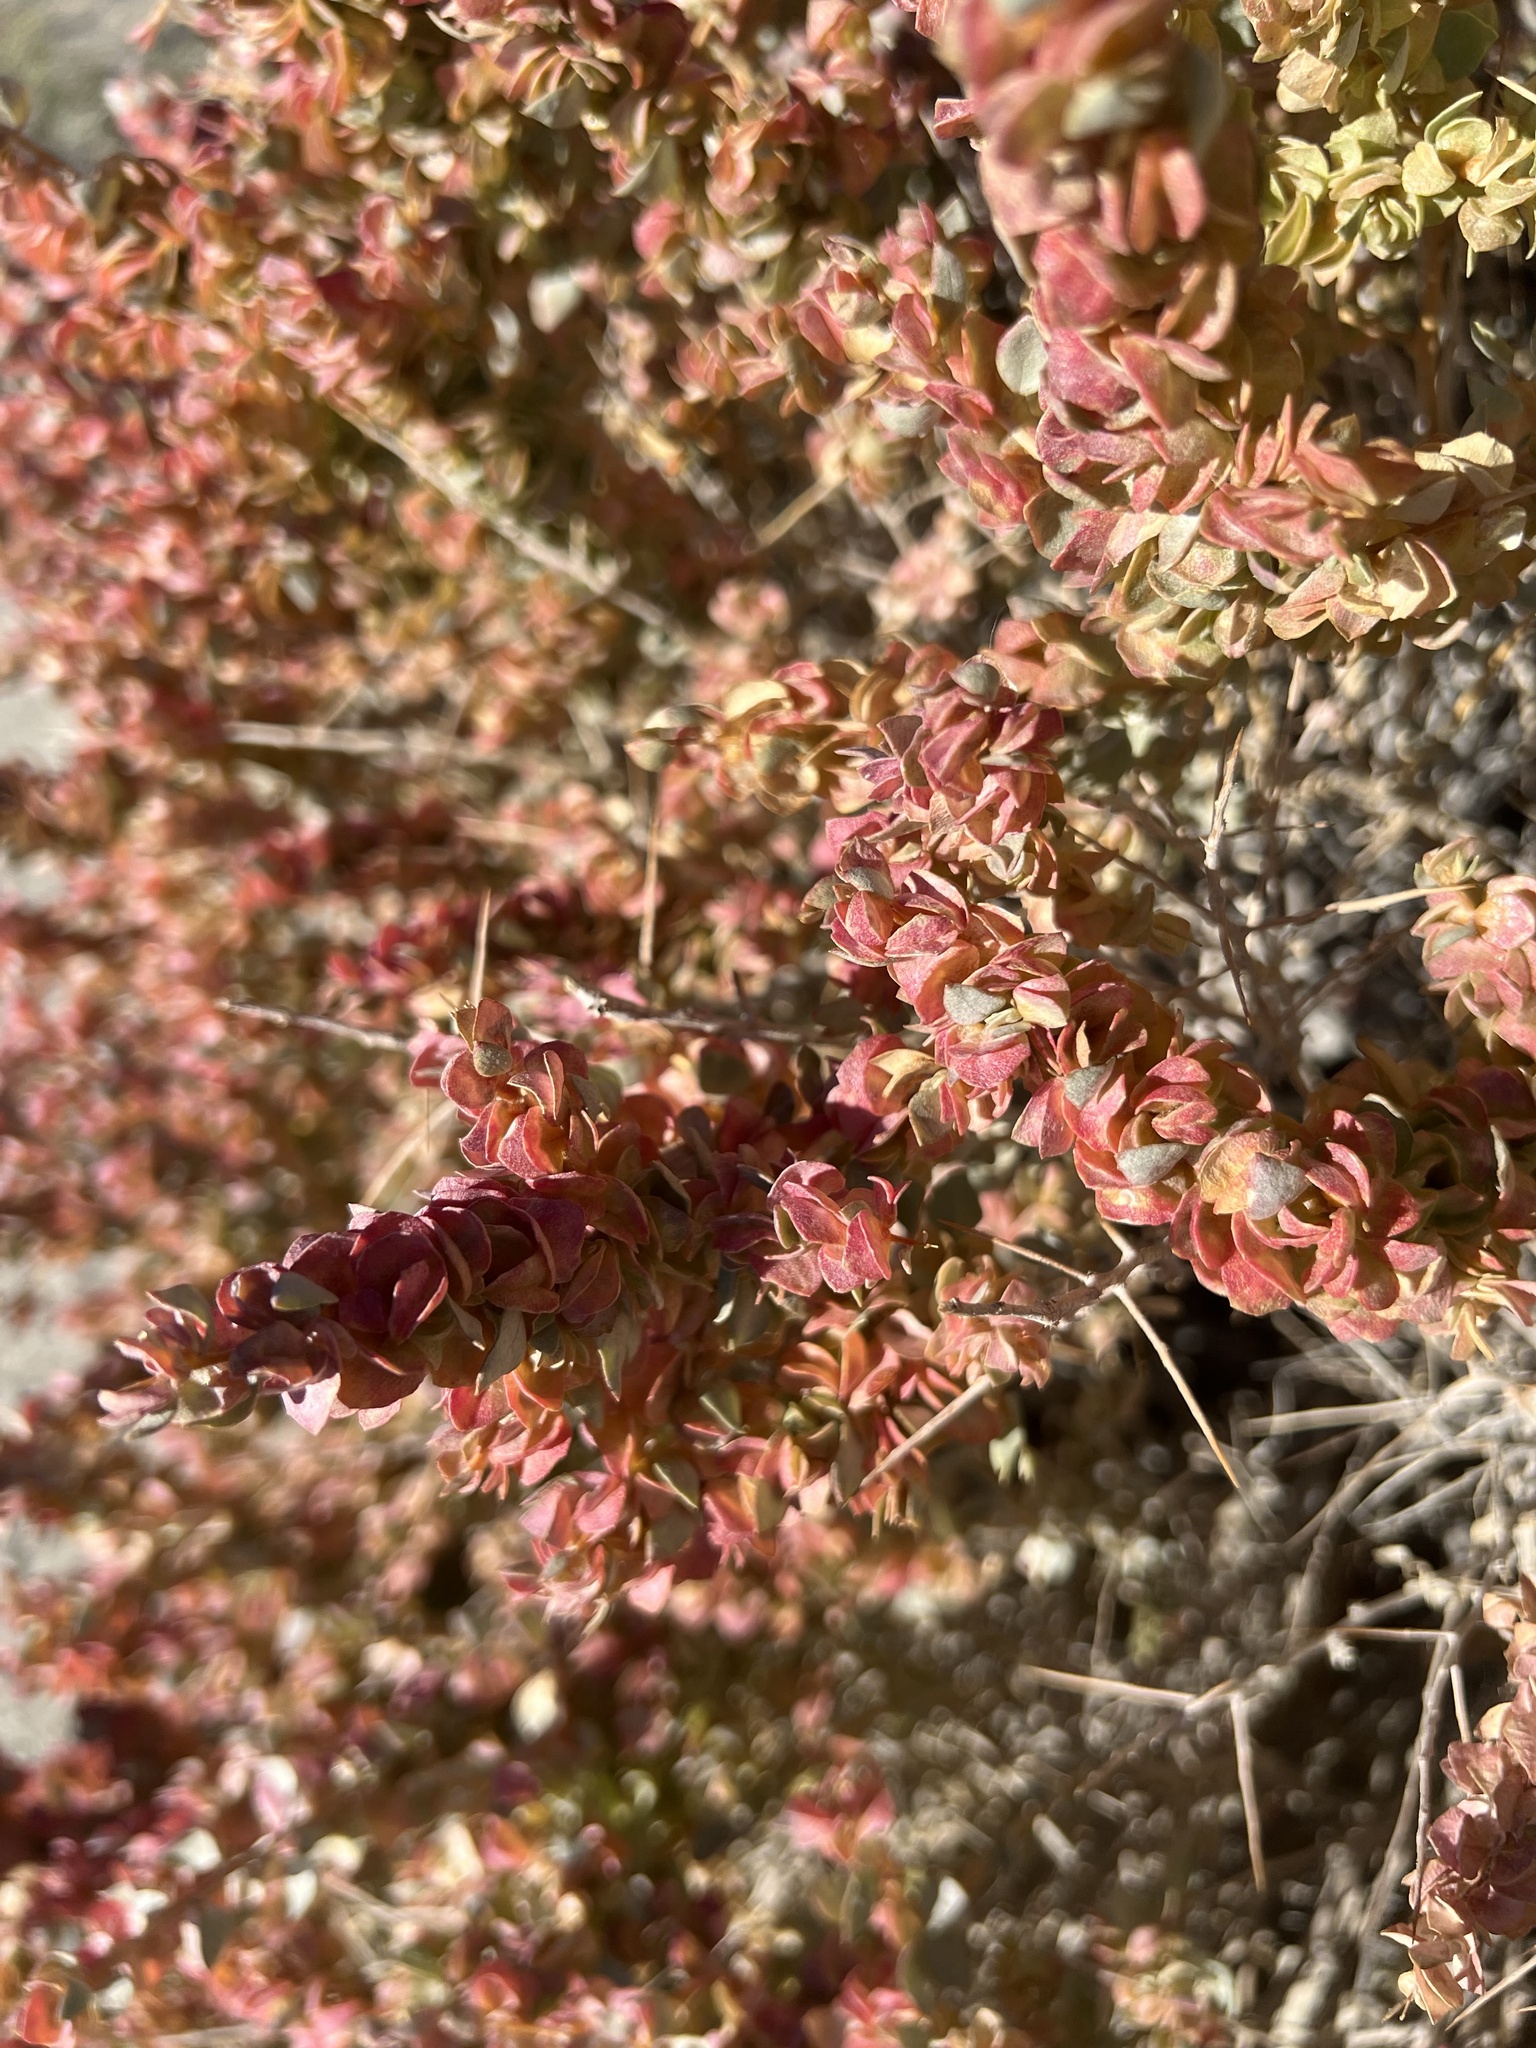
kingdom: Plantae
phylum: Tracheophyta
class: Magnoliopsida
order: Caryophyllales
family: Amaranthaceae
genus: Atriplex
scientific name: Atriplex confertifolia
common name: Shadscale
